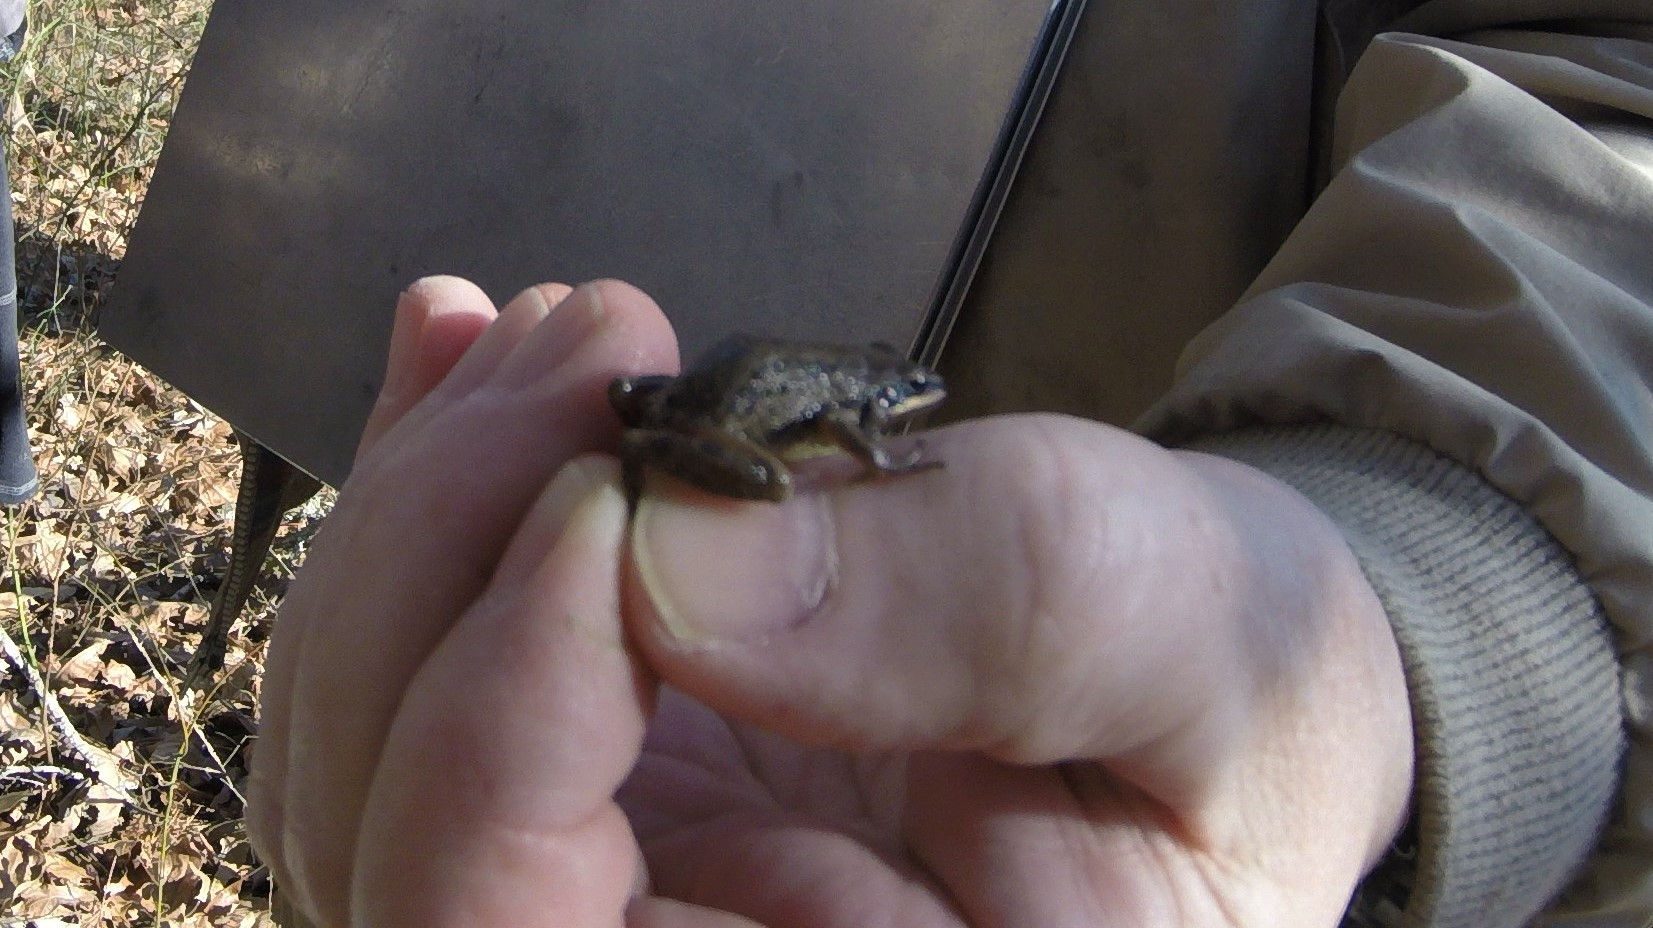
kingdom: Animalia
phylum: Chordata
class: Amphibia
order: Anura
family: Hylidae
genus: Pseudacris
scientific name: Pseudacris fouquettei
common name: Cajun chorus frog
